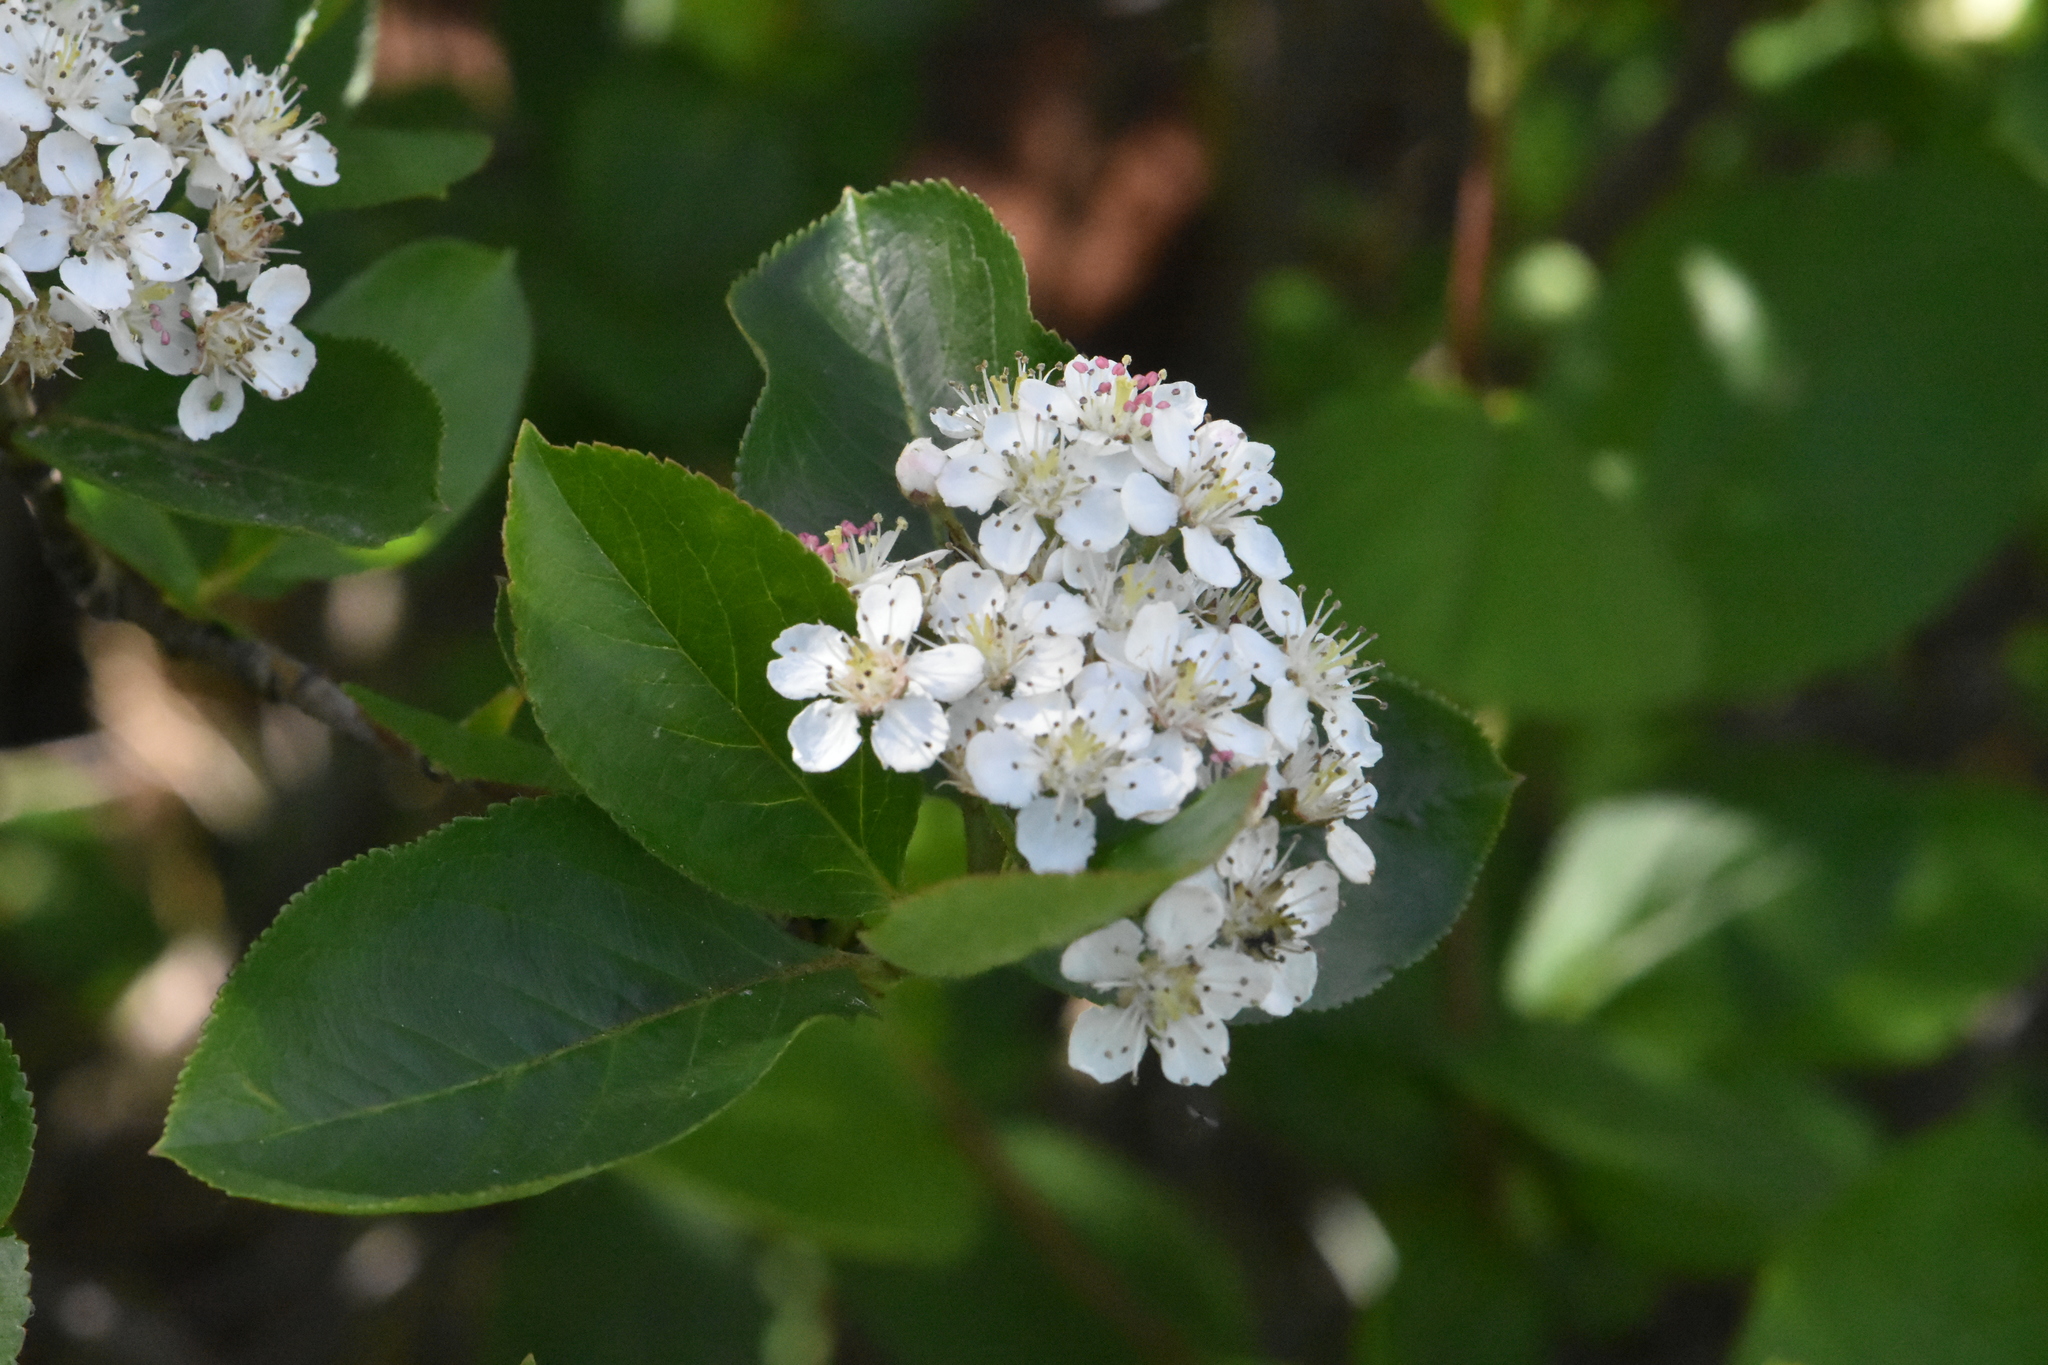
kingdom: Plantae
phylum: Tracheophyta
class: Magnoliopsida
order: Rosales
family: Rosaceae
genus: Sorbaronia
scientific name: Sorbaronia arsenii
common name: Arsène's mountain-ash
